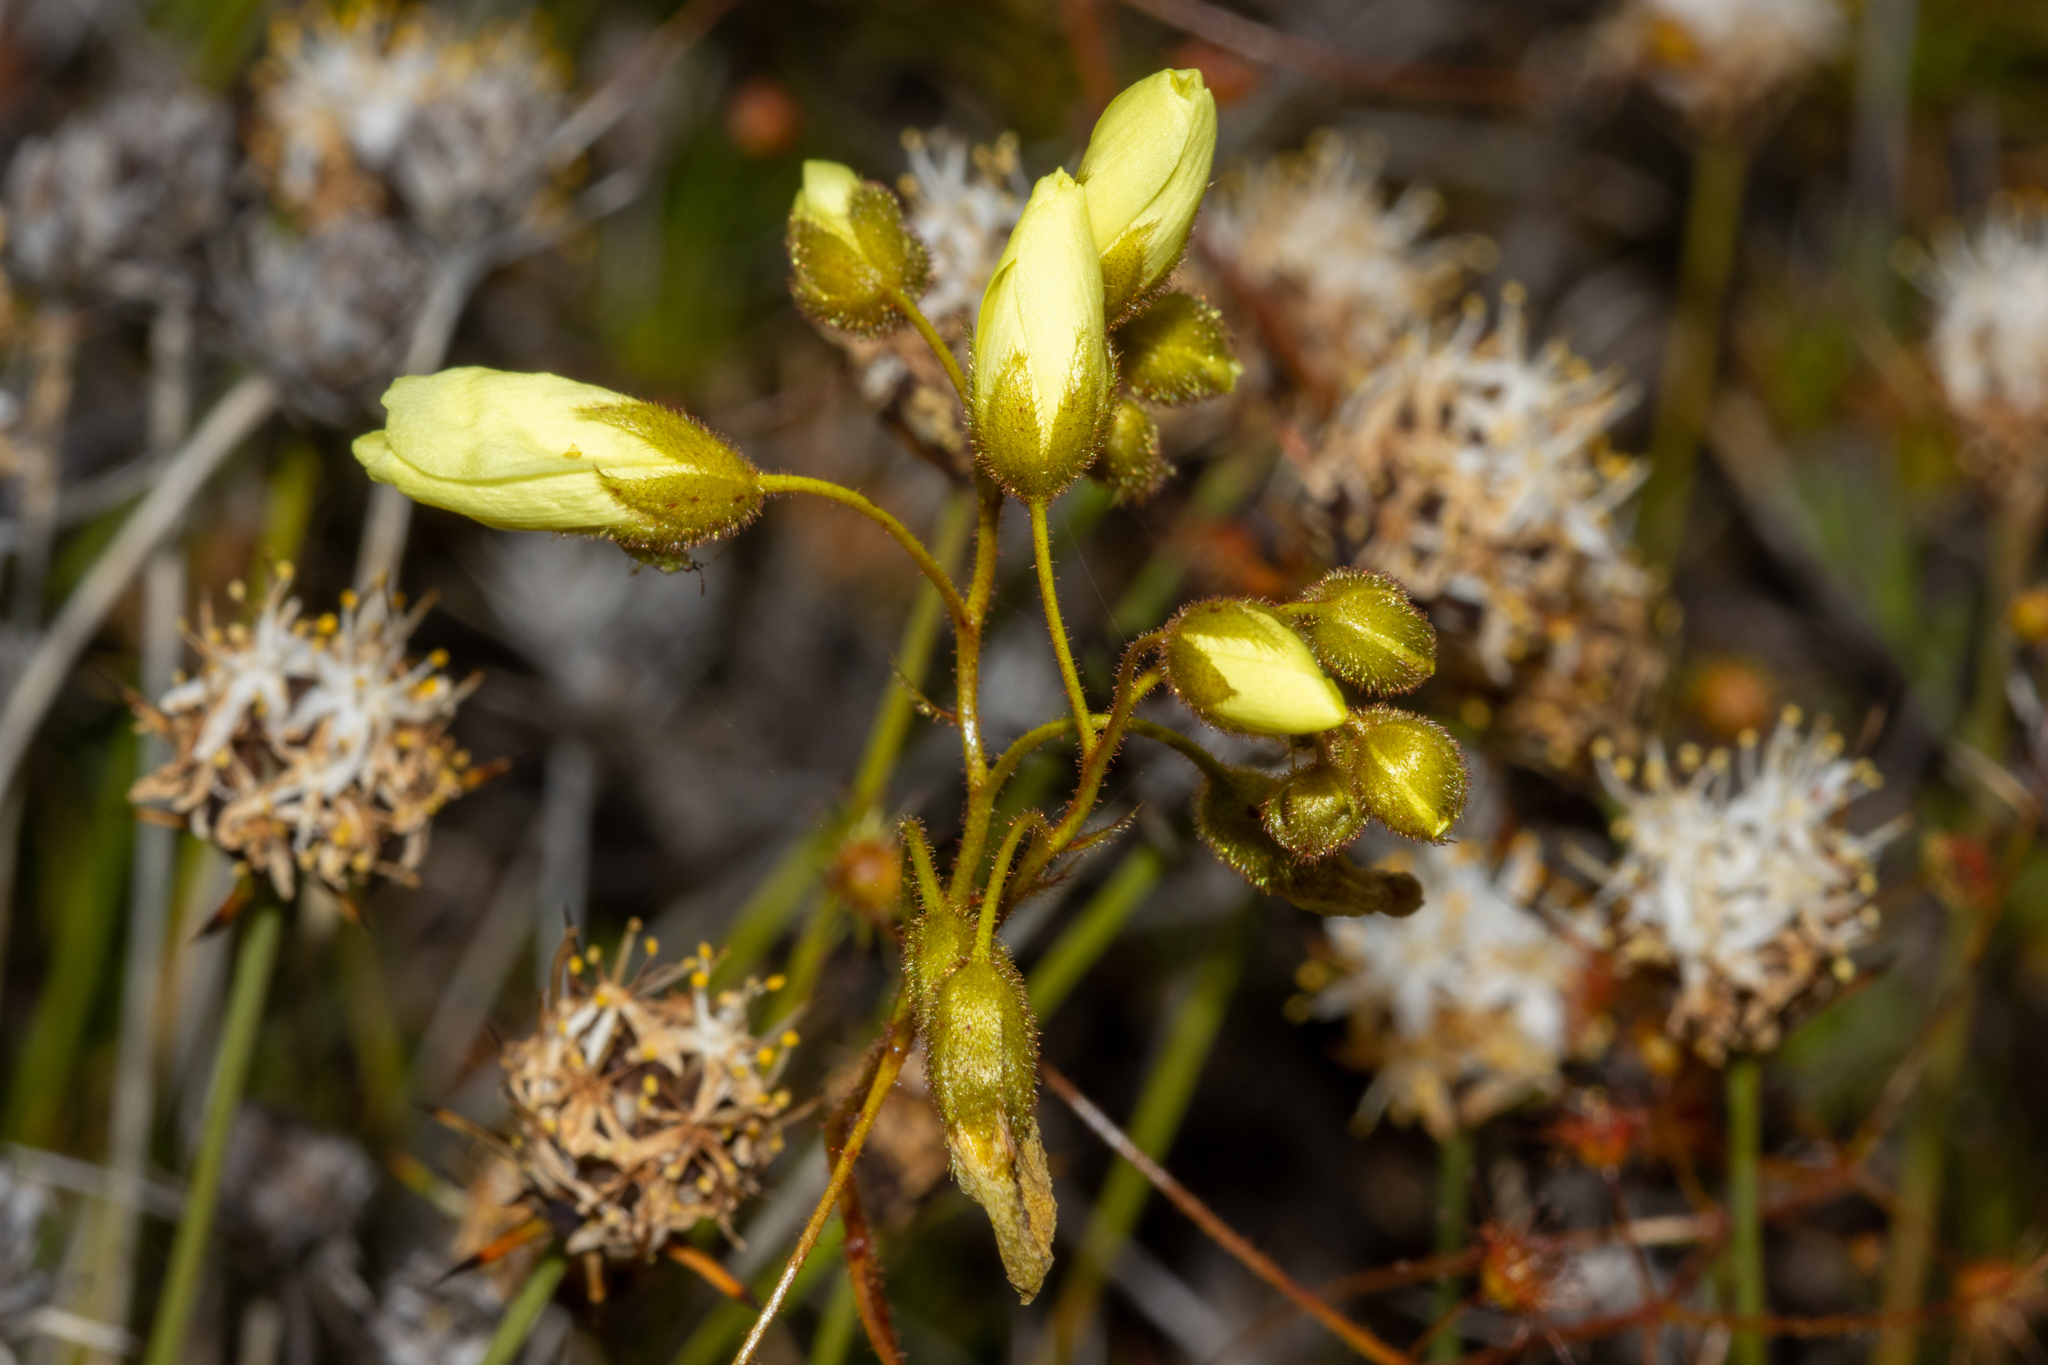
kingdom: Plantae
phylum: Tracheophyta
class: Magnoliopsida
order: Caryophyllales
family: Droseraceae
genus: Drosera
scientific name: Drosera subhirtella
